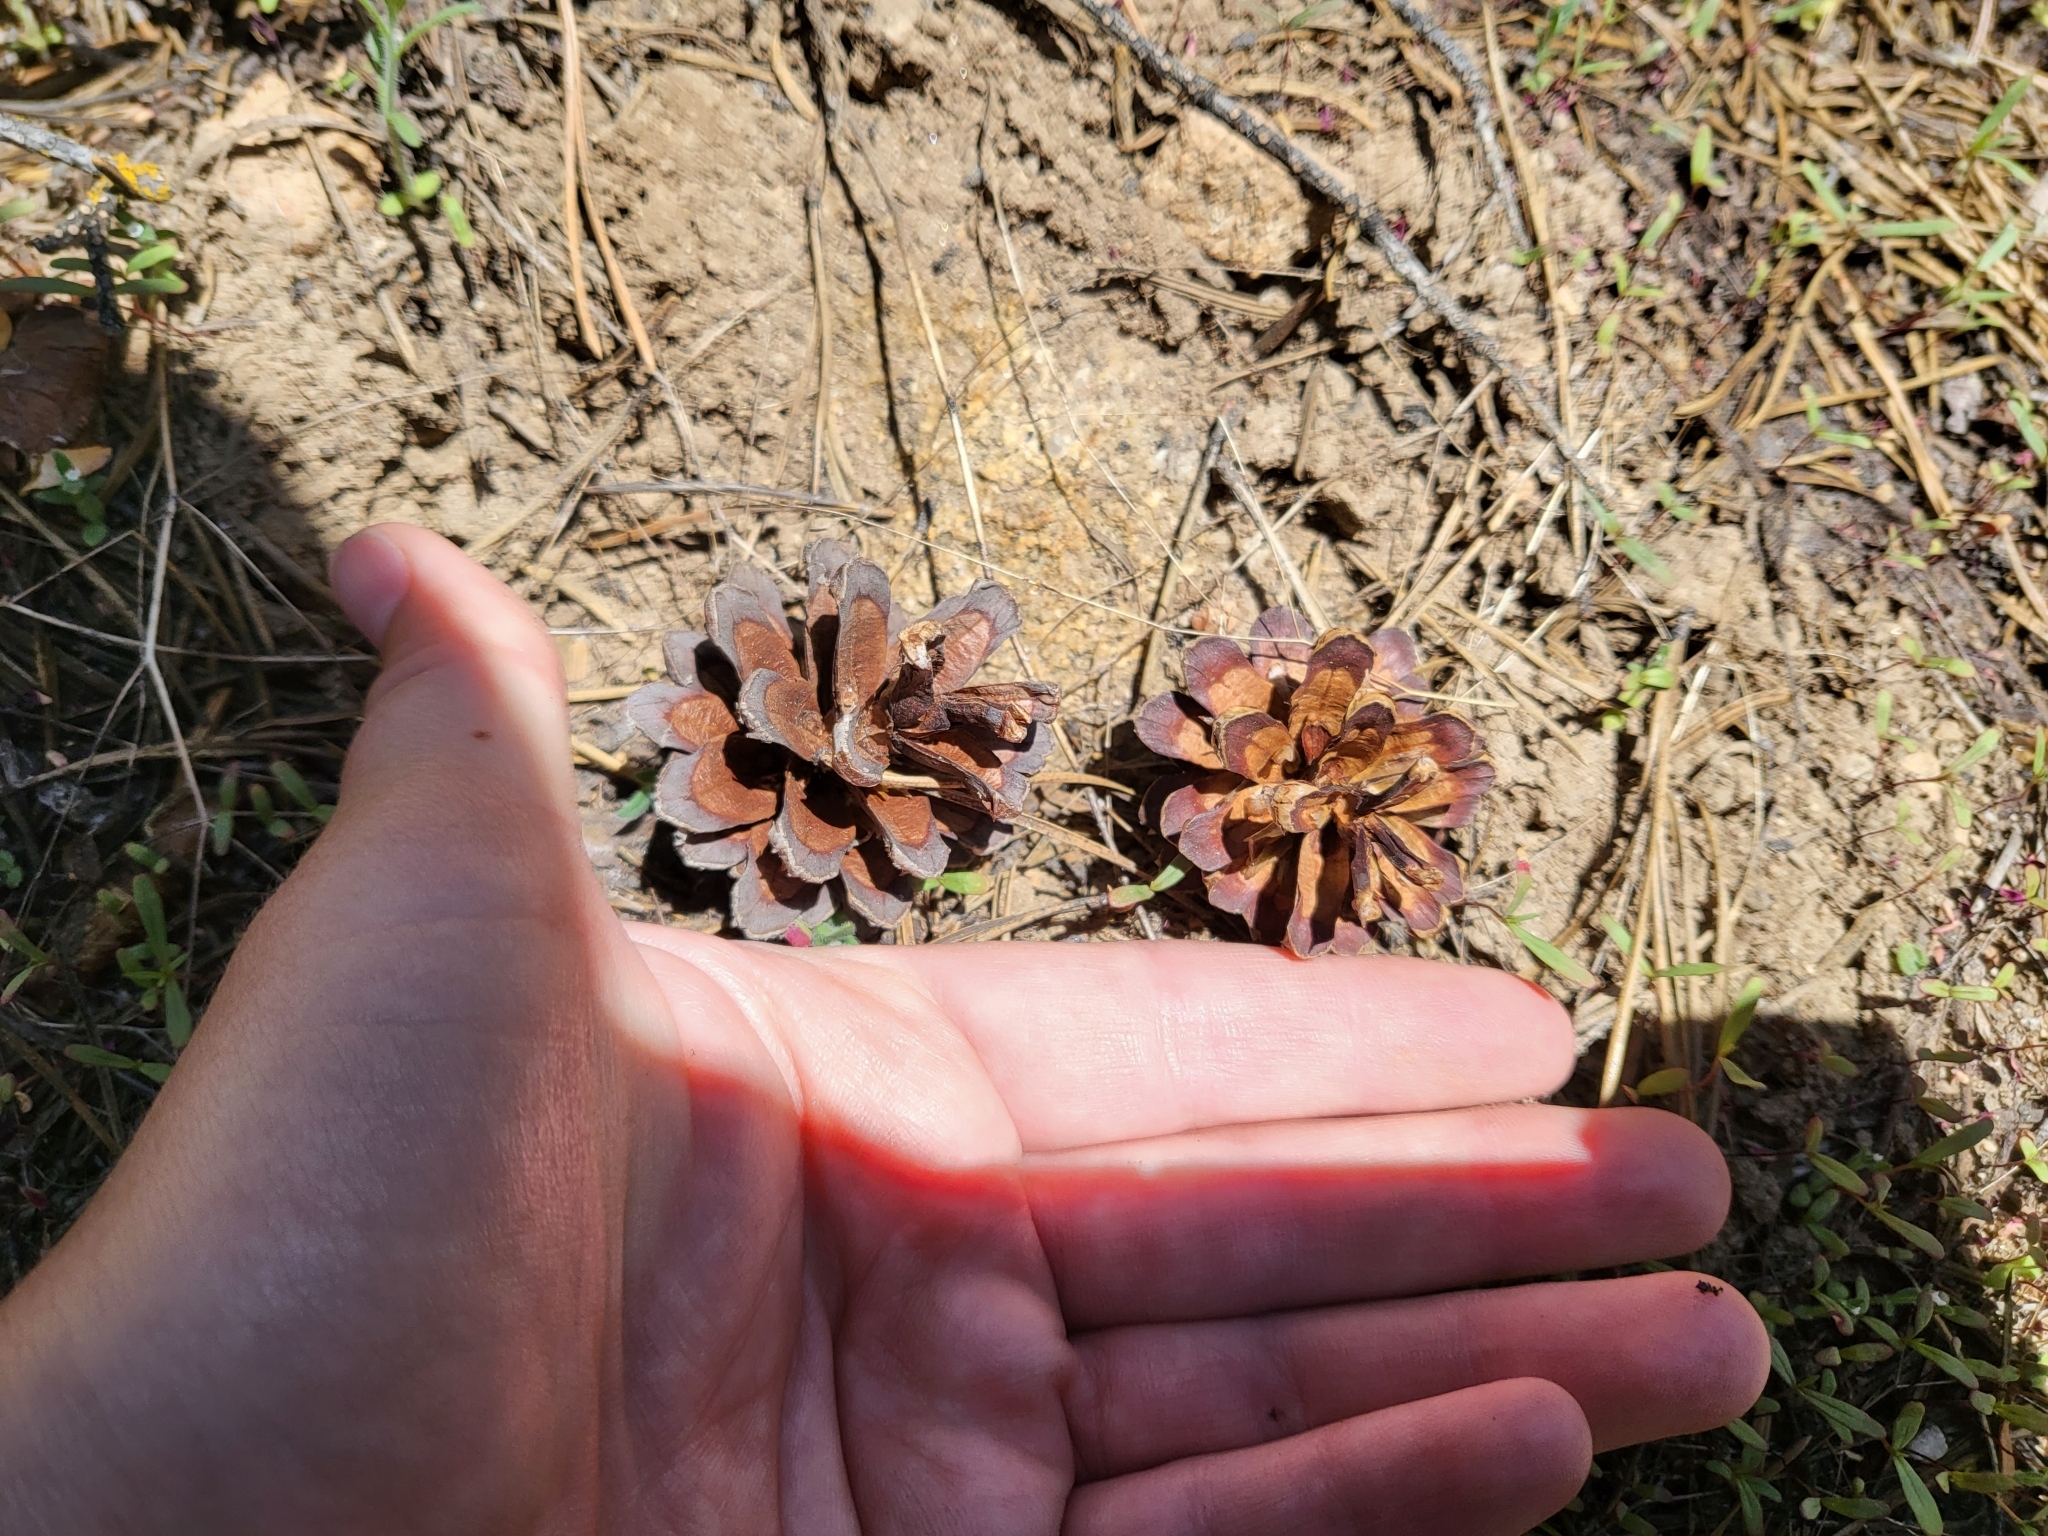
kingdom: Plantae
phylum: Tracheophyta
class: Pinopsida
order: Pinales
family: Pinaceae
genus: Pinus
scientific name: Pinus contorta
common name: Lodgepole pine
